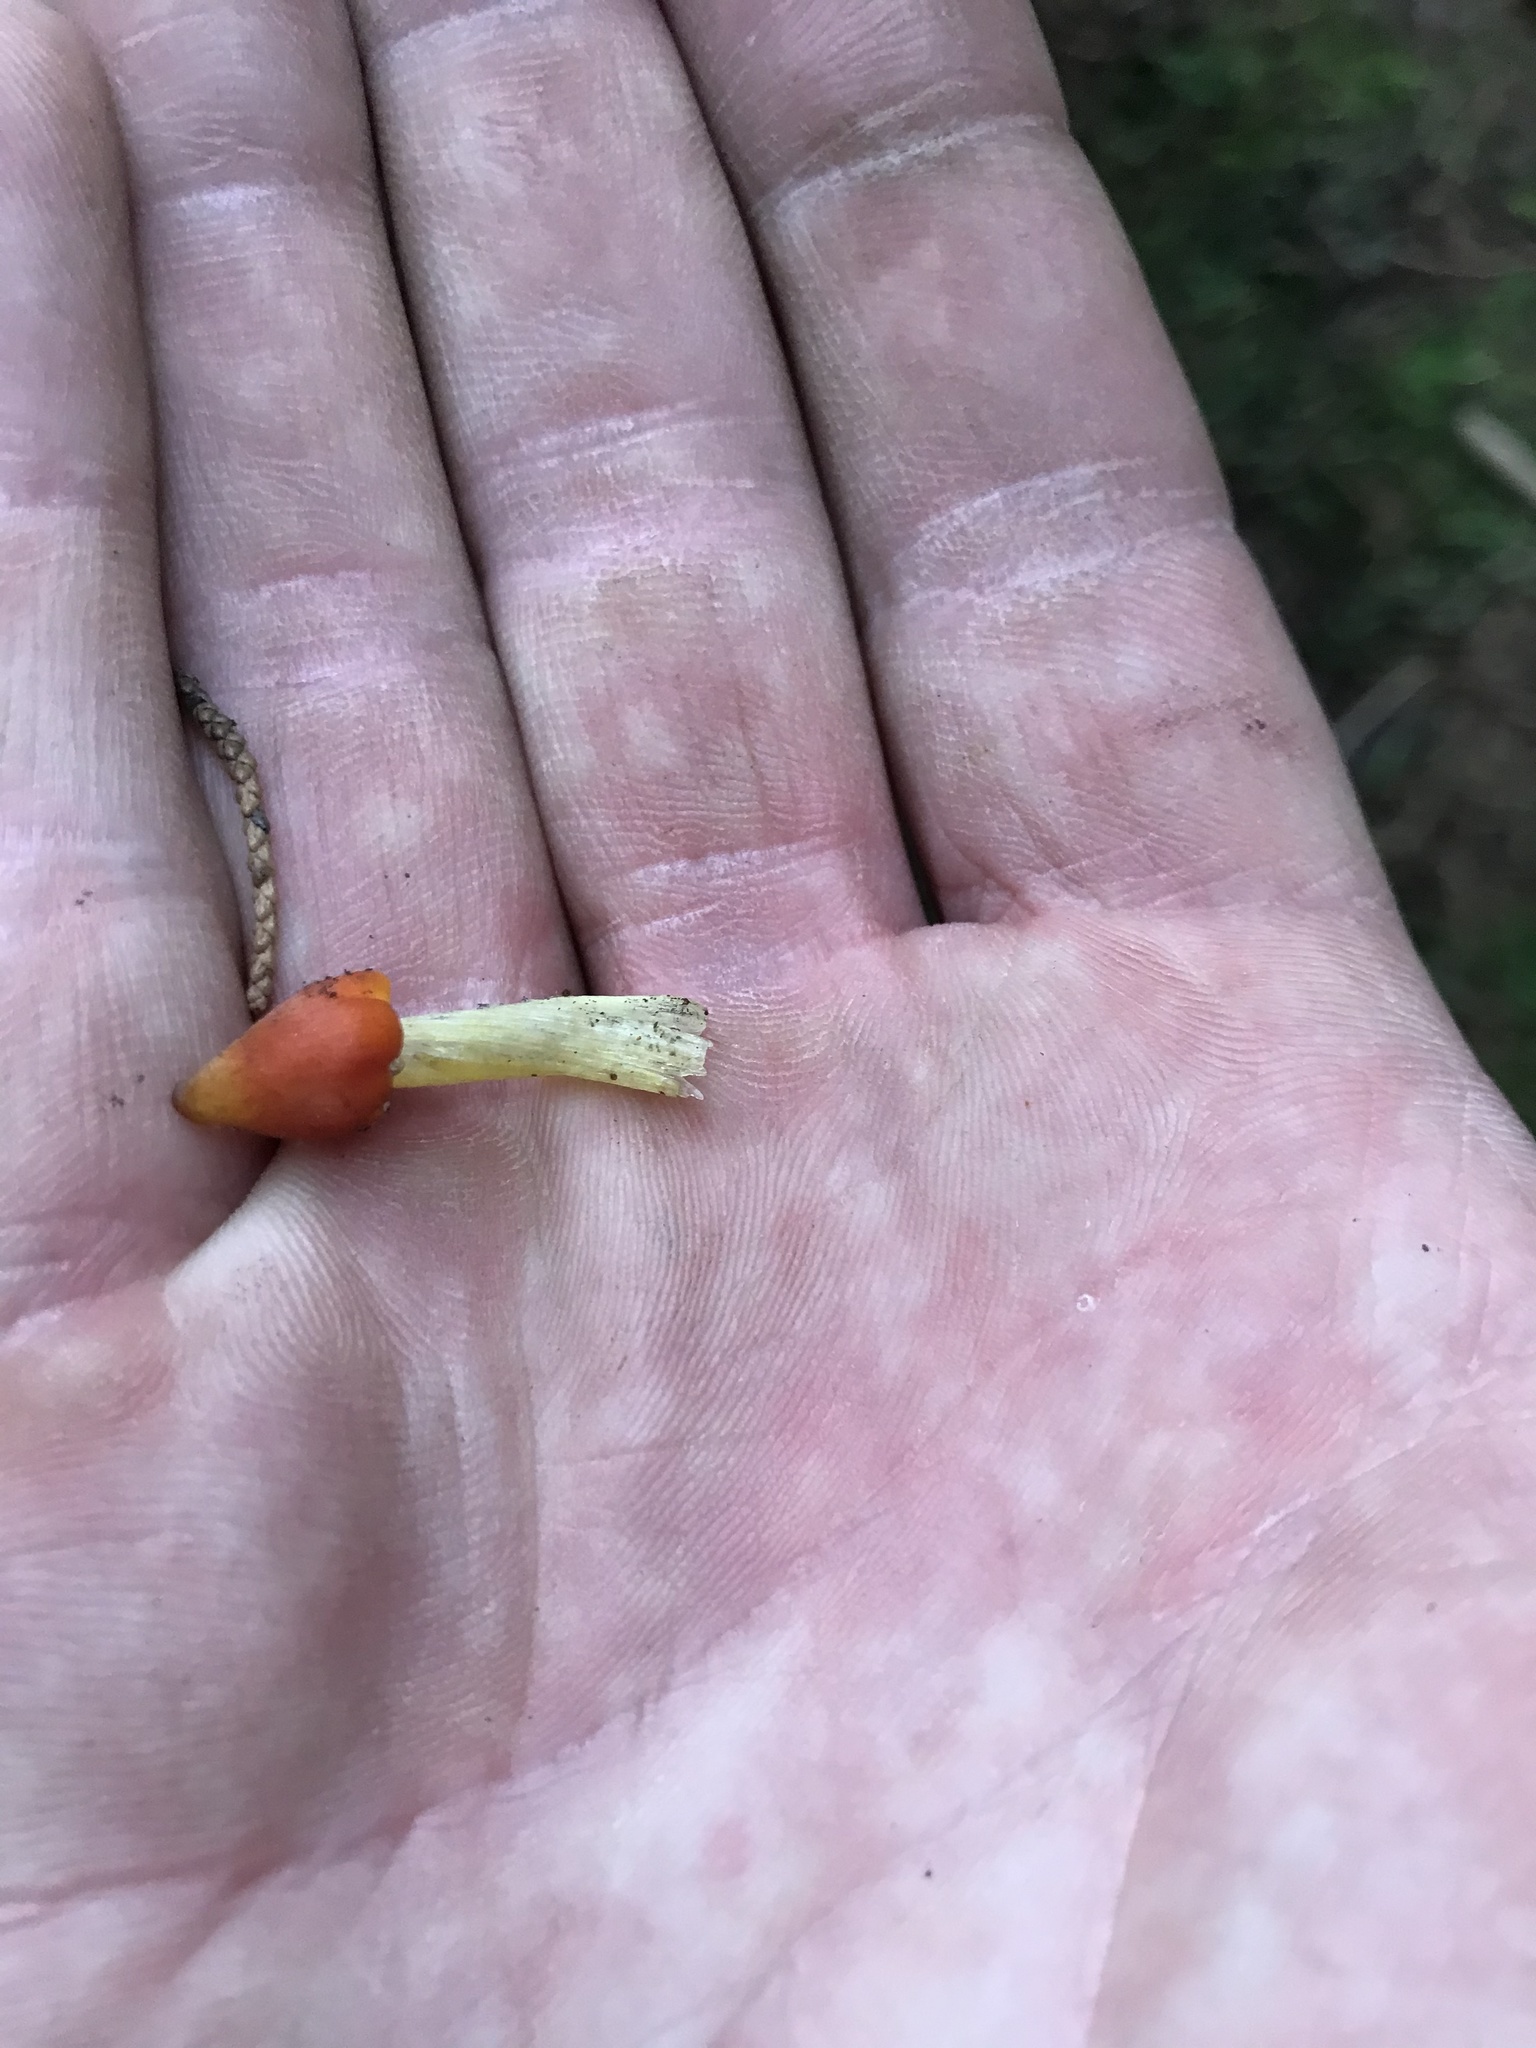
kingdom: Fungi
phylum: Basidiomycota
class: Agaricomycetes
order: Agaricales
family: Hygrophoraceae
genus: Hygrocybe
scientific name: Hygrocybe conica
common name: Blackening wax-cap
